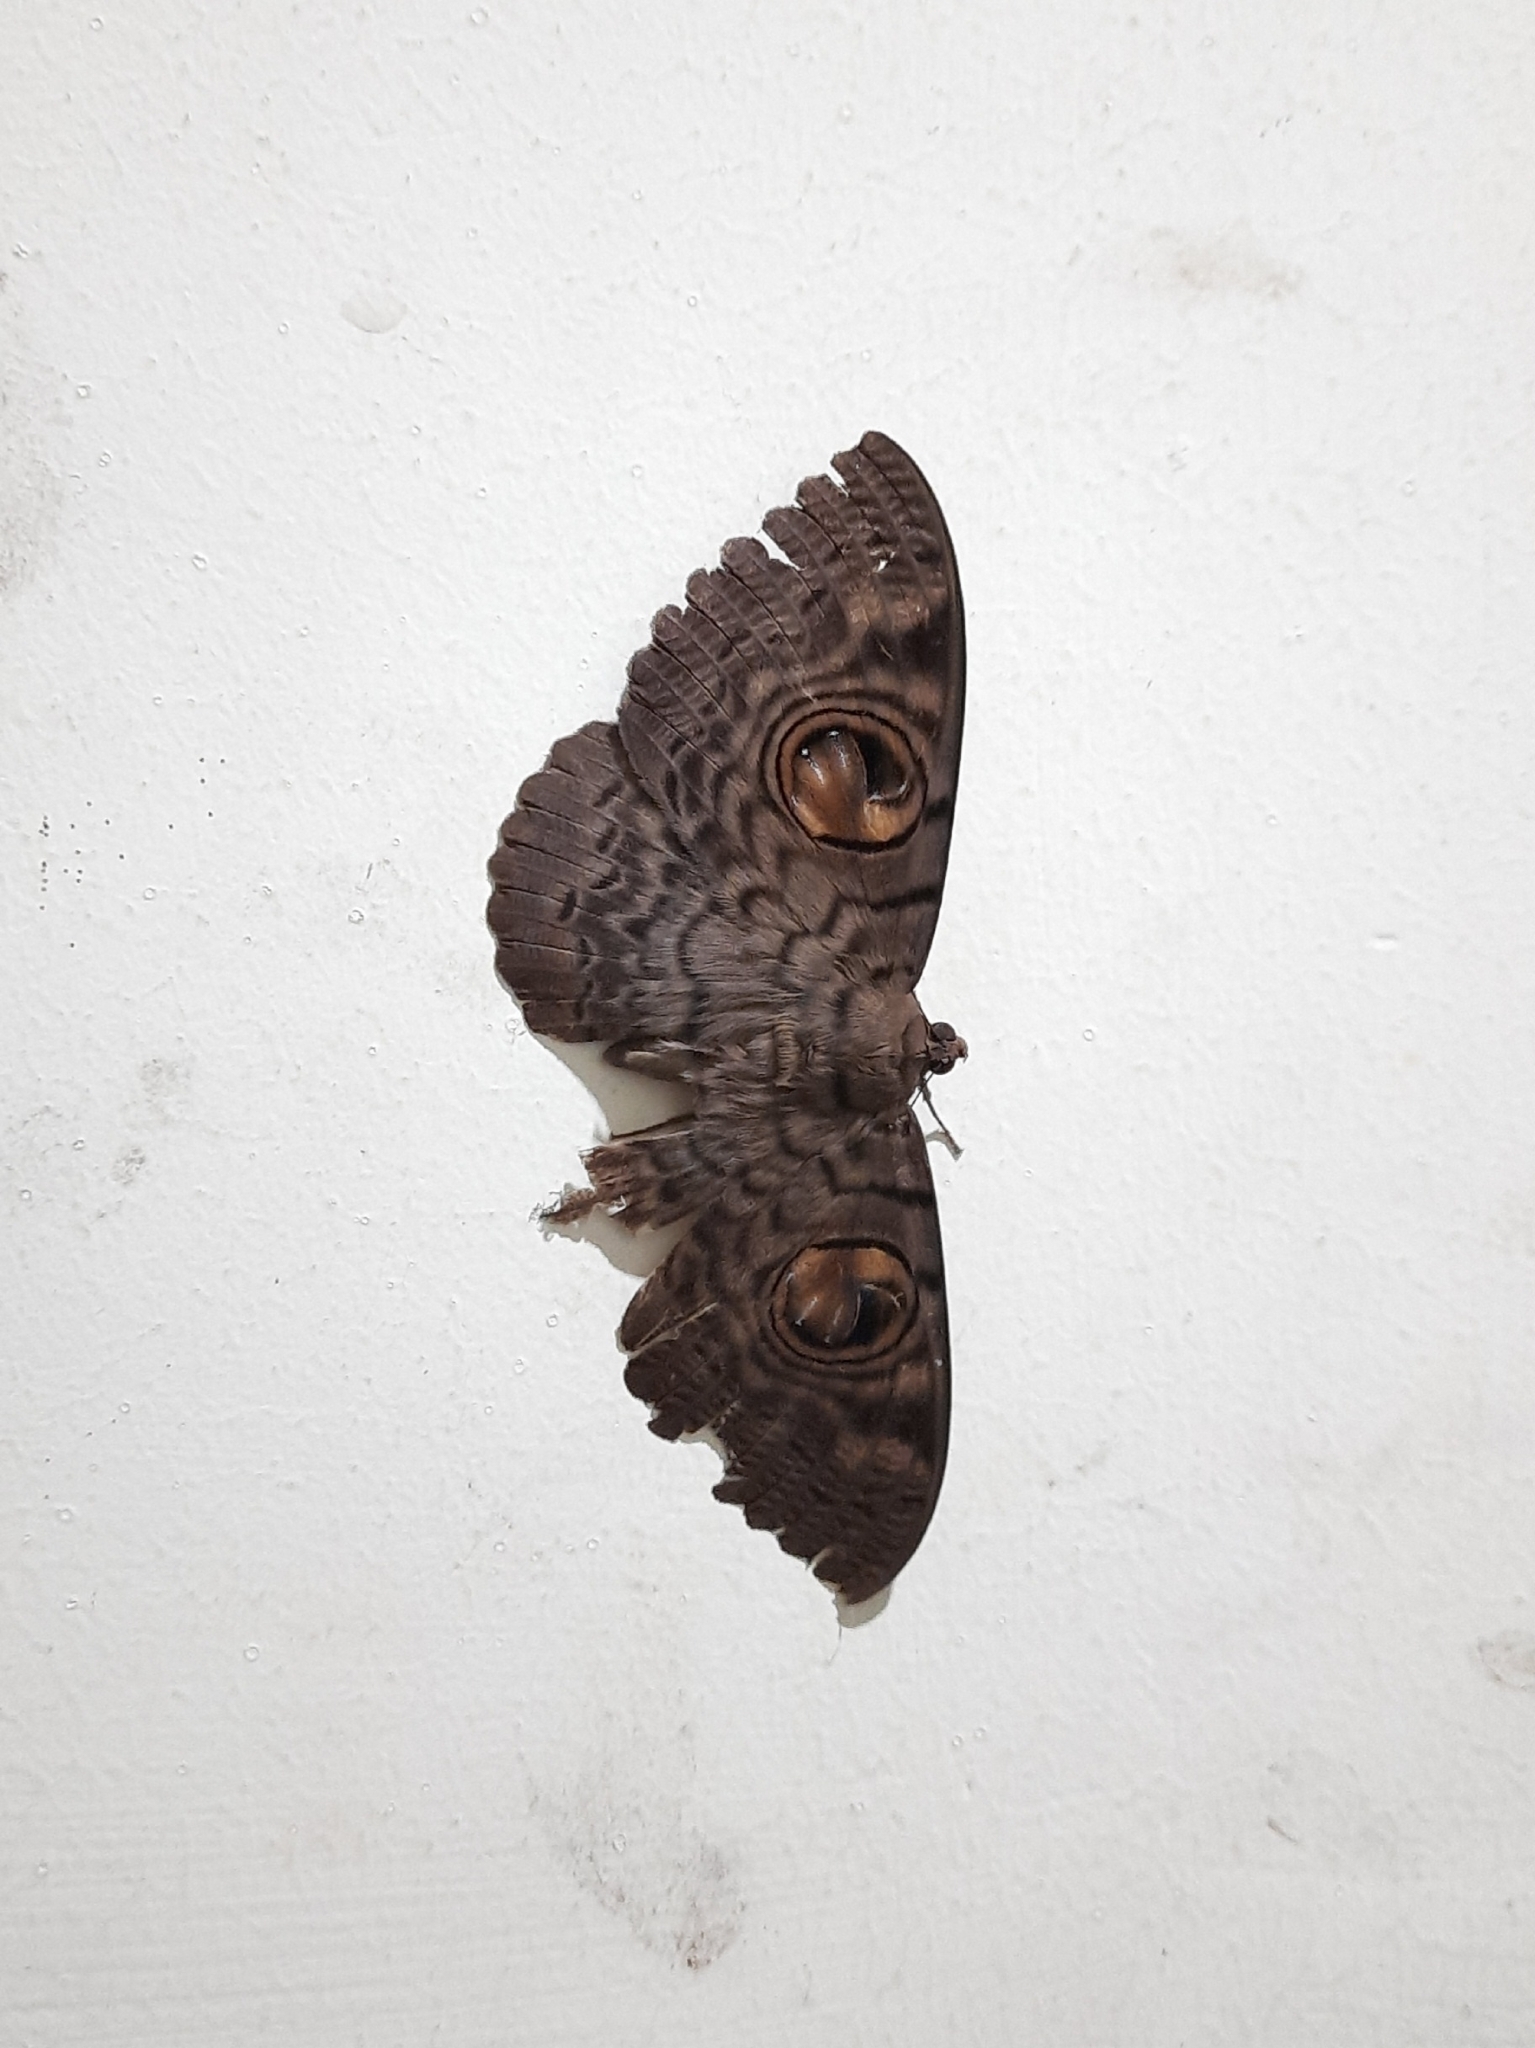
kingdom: Animalia
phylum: Arthropoda
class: Insecta
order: Lepidoptera
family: Erebidae
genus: Erebus
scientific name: Erebus macrops
